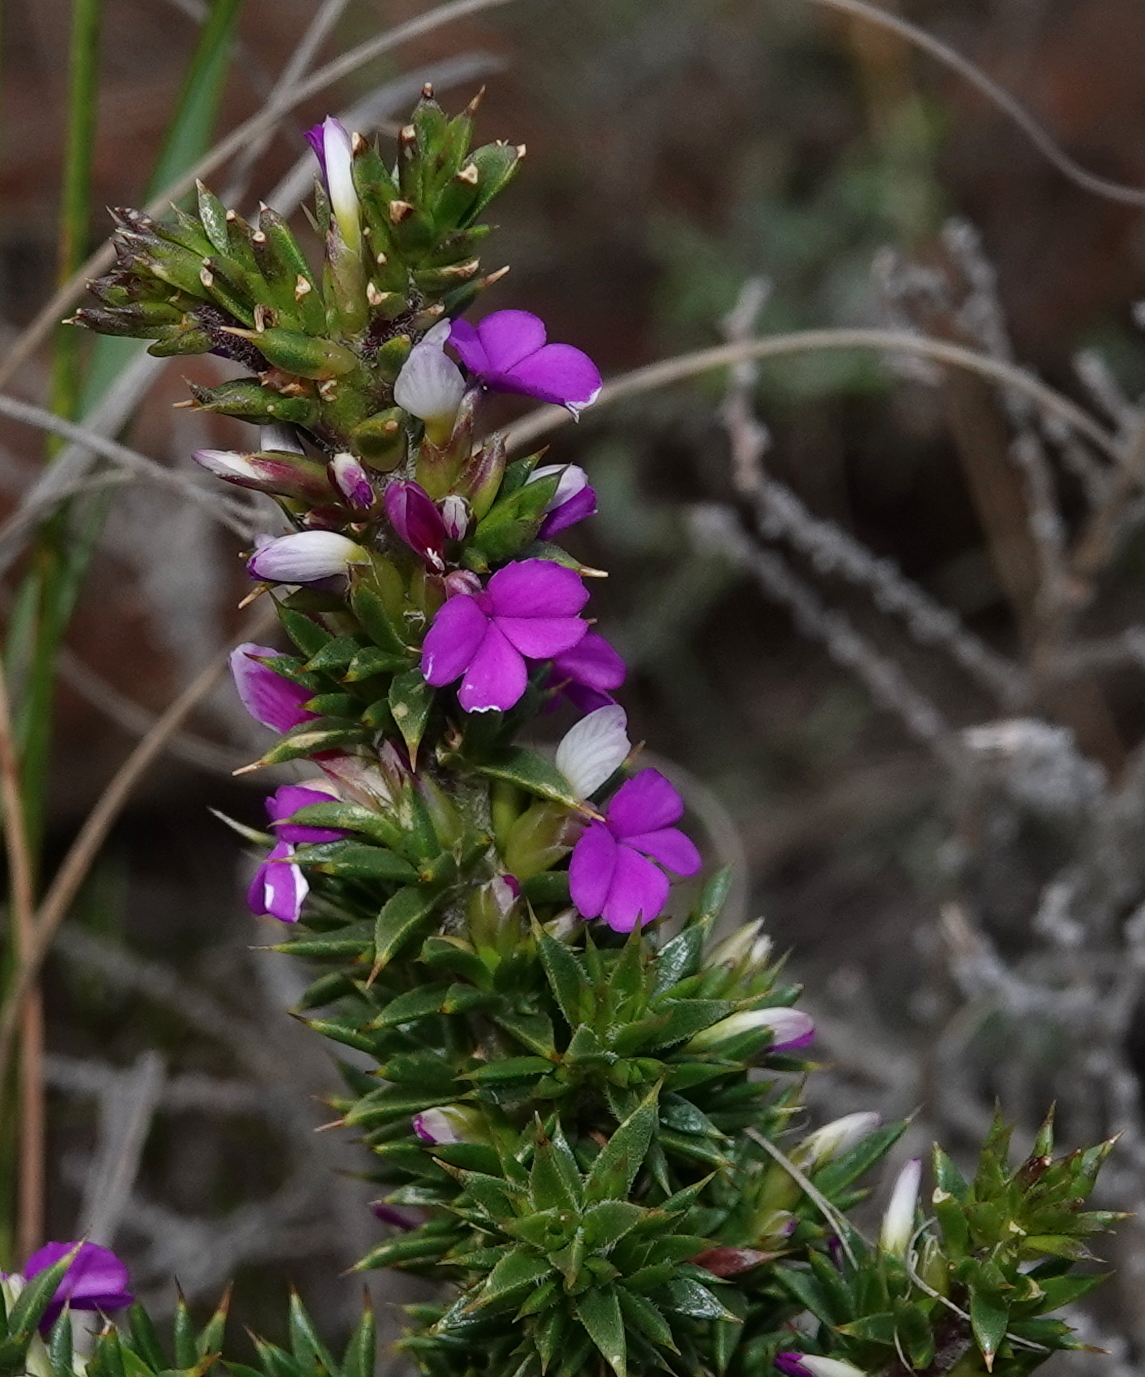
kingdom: Plantae
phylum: Tracheophyta
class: Magnoliopsida
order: Fabales
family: Polygalaceae
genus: Muraltia
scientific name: Muraltia heisteria
